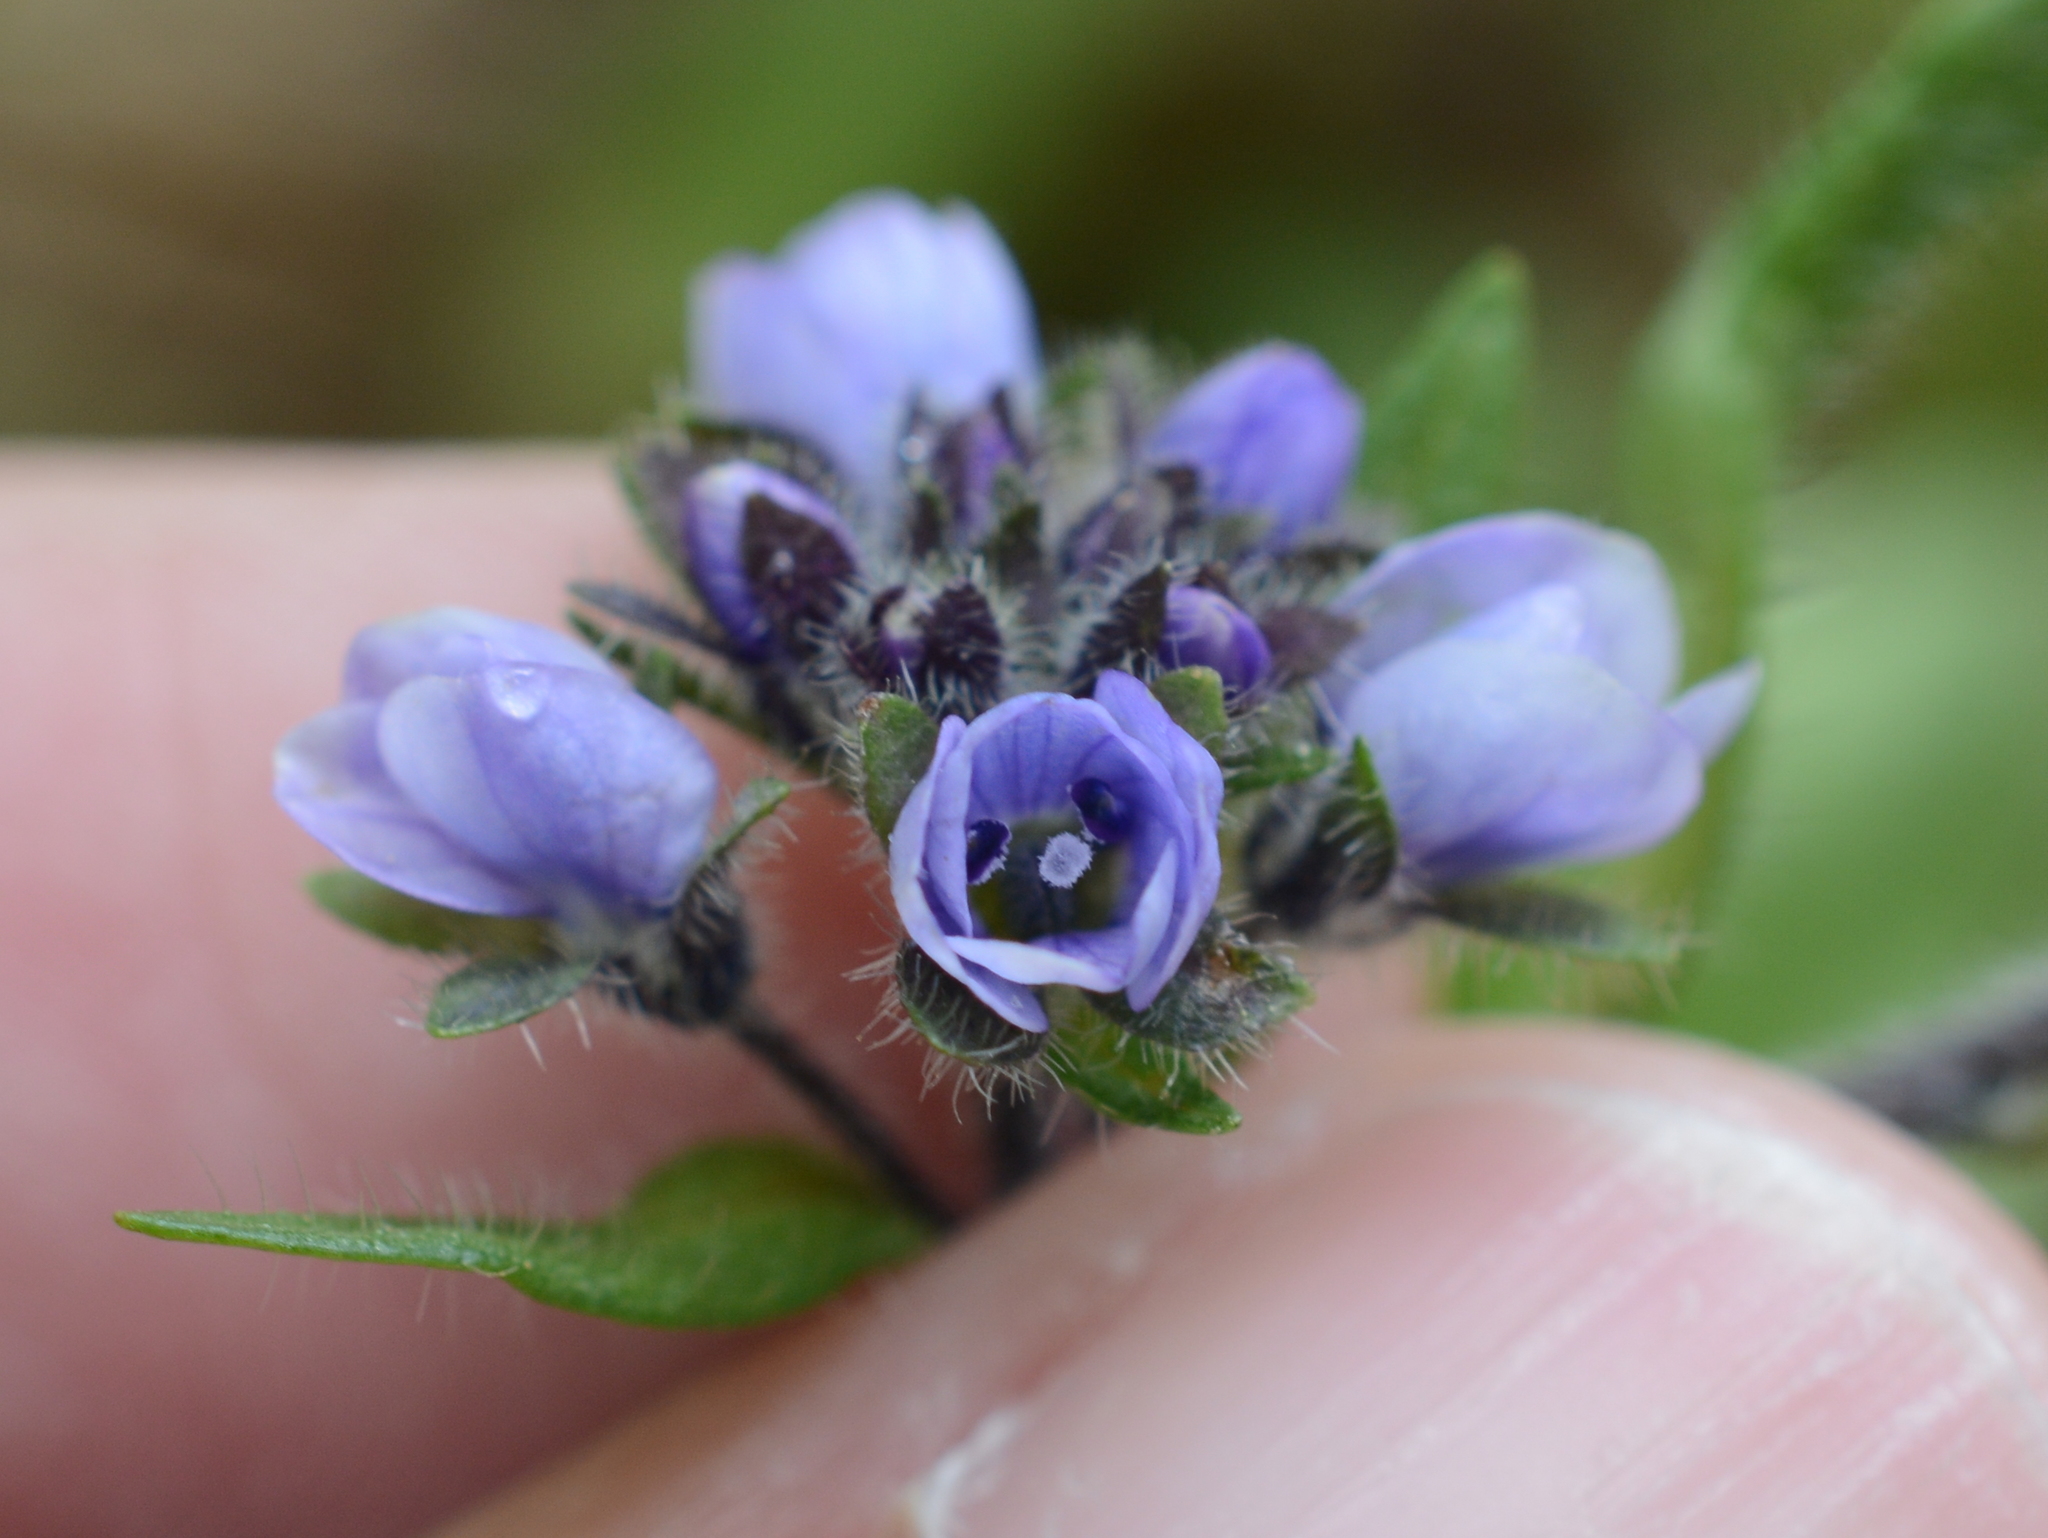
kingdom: Plantae
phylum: Tracheophyta
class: Magnoliopsida
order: Lamiales
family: Plantaginaceae
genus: Veronica
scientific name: Veronica wormskjoldii
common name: American alpine speedwell
